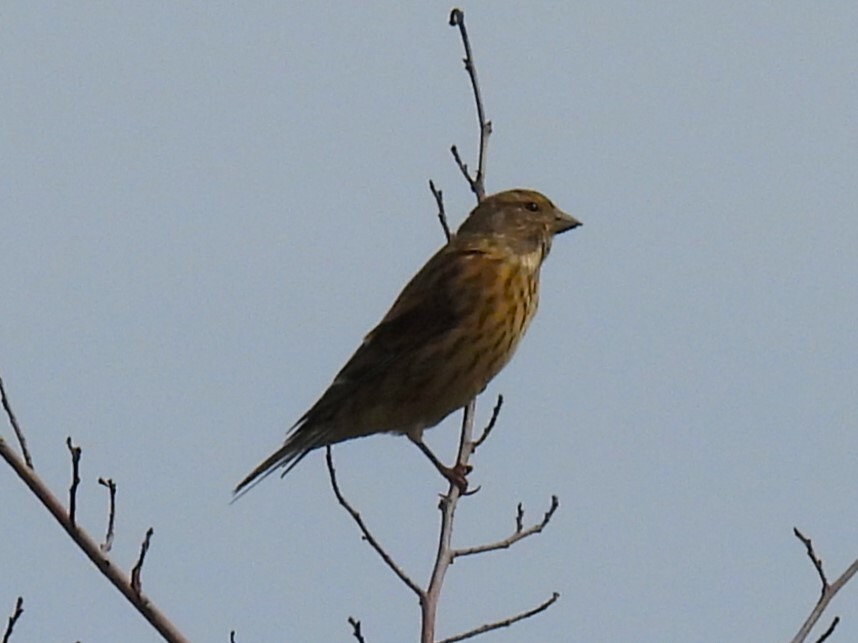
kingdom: Animalia
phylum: Chordata
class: Aves
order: Passeriformes
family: Fringillidae
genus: Linaria
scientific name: Linaria cannabina
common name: Common linnet
